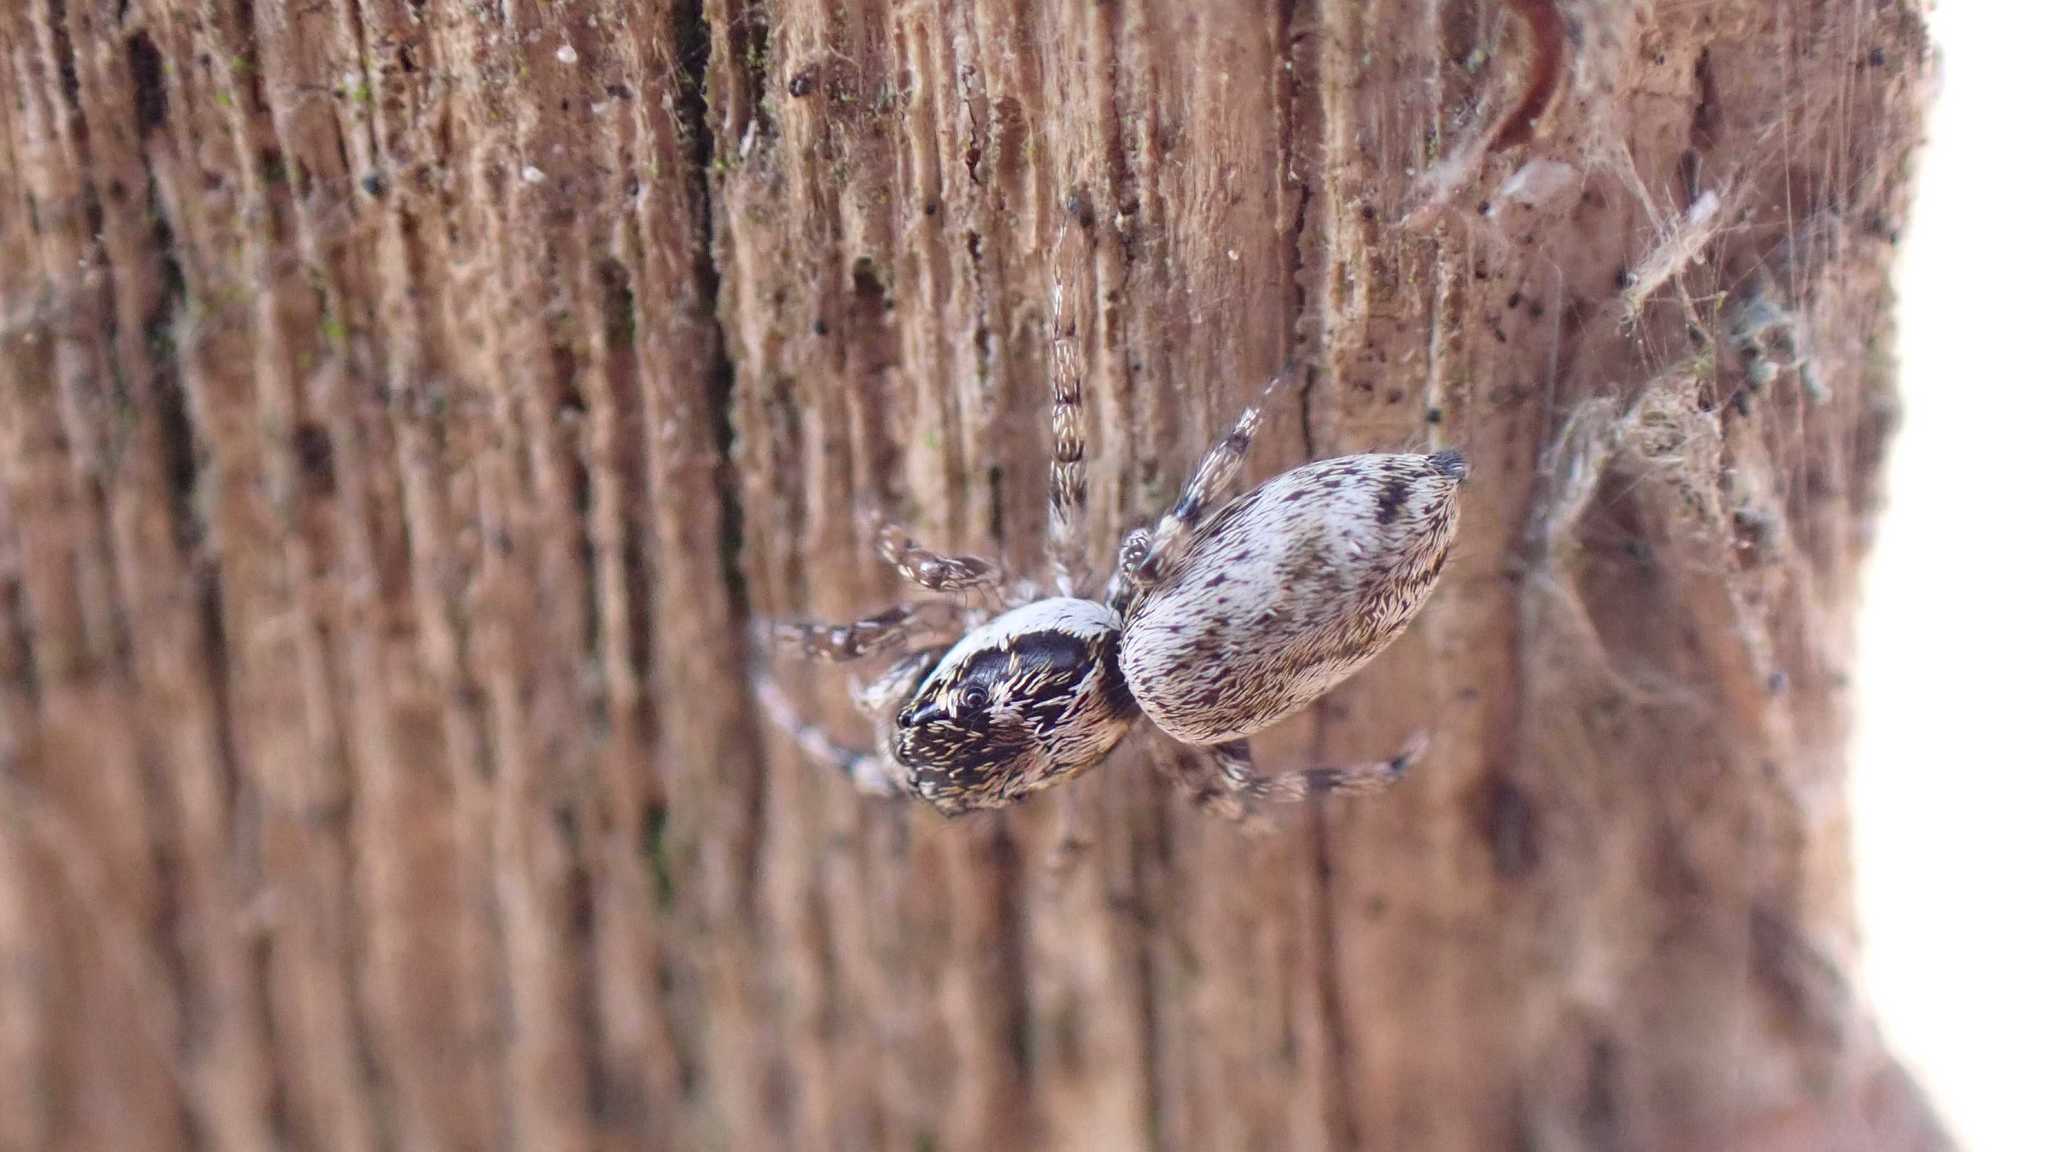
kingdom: Animalia
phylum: Arthropoda
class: Arachnida
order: Araneae
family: Salticidae
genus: Salticus
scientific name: Salticus
